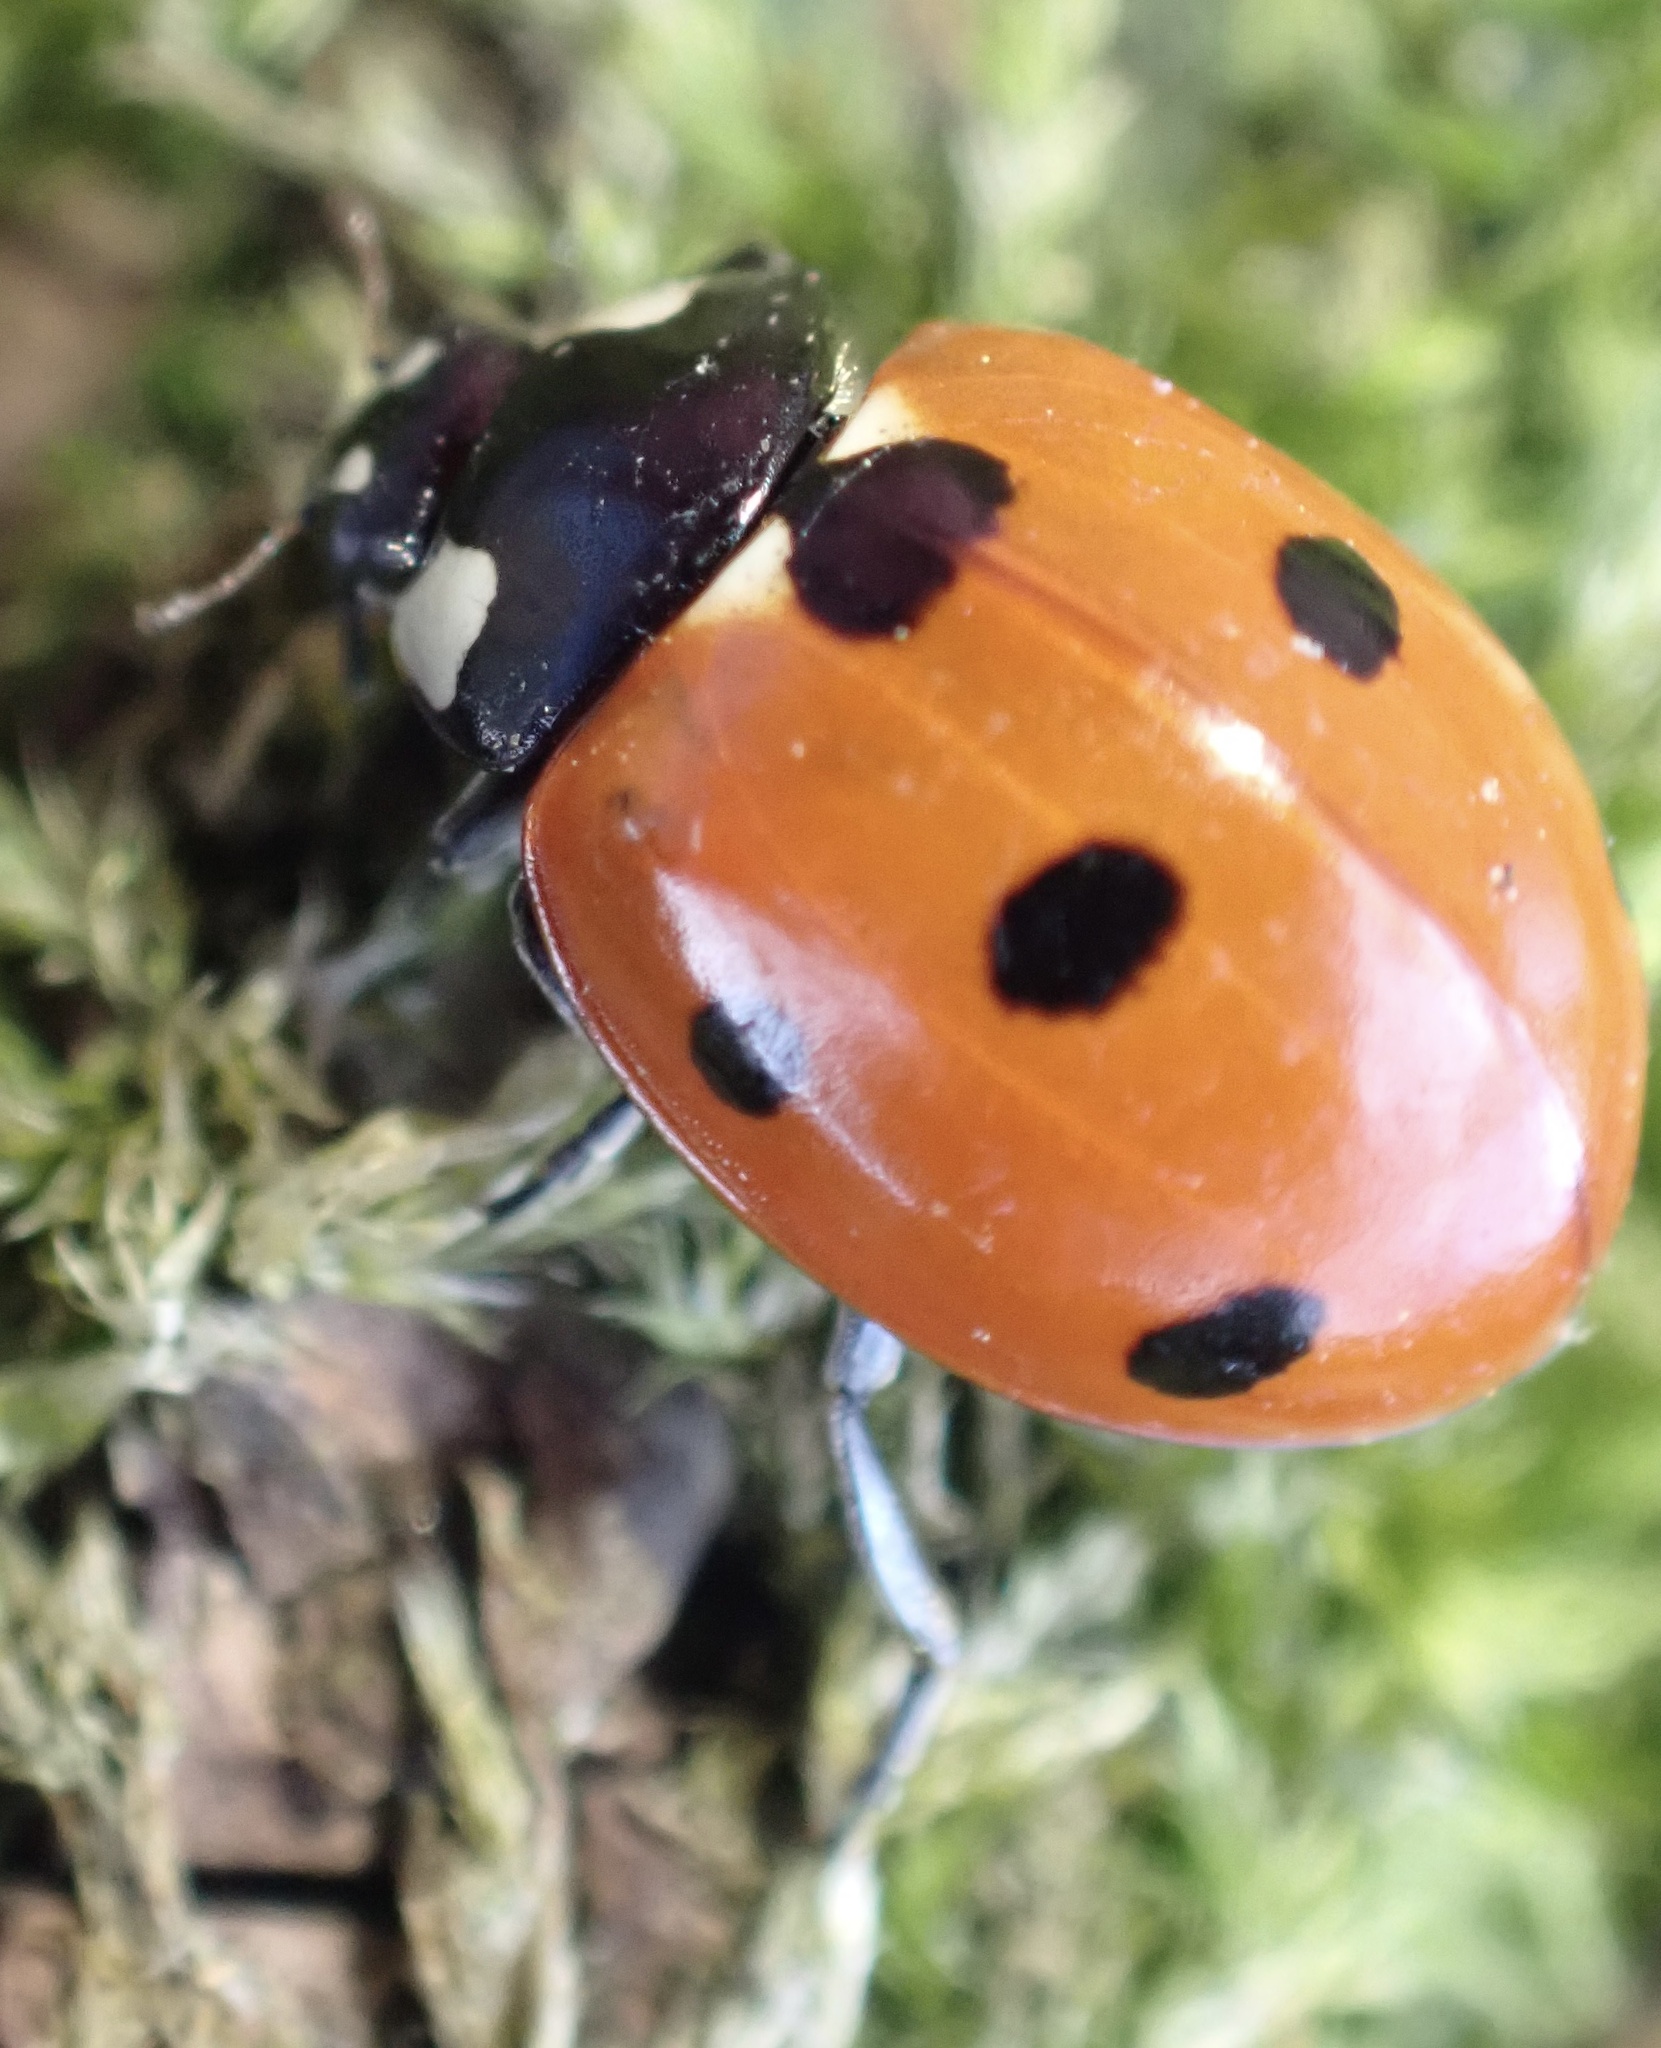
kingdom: Animalia
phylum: Arthropoda
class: Insecta
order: Coleoptera
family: Coccinellidae
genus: Coccinella
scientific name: Coccinella septempunctata
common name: Sevenspotted lady beetle
